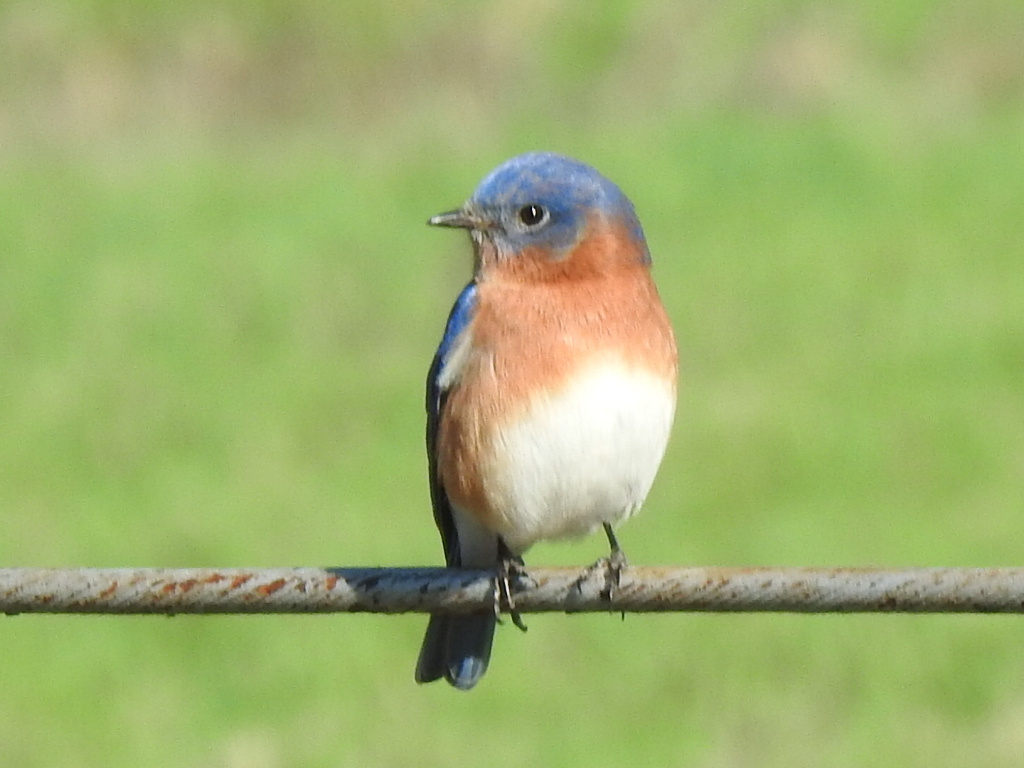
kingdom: Animalia
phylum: Chordata
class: Aves
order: Passeriformes
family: Turdidae
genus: Sialia
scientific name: Sialia sialis
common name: Eastern bluebird
